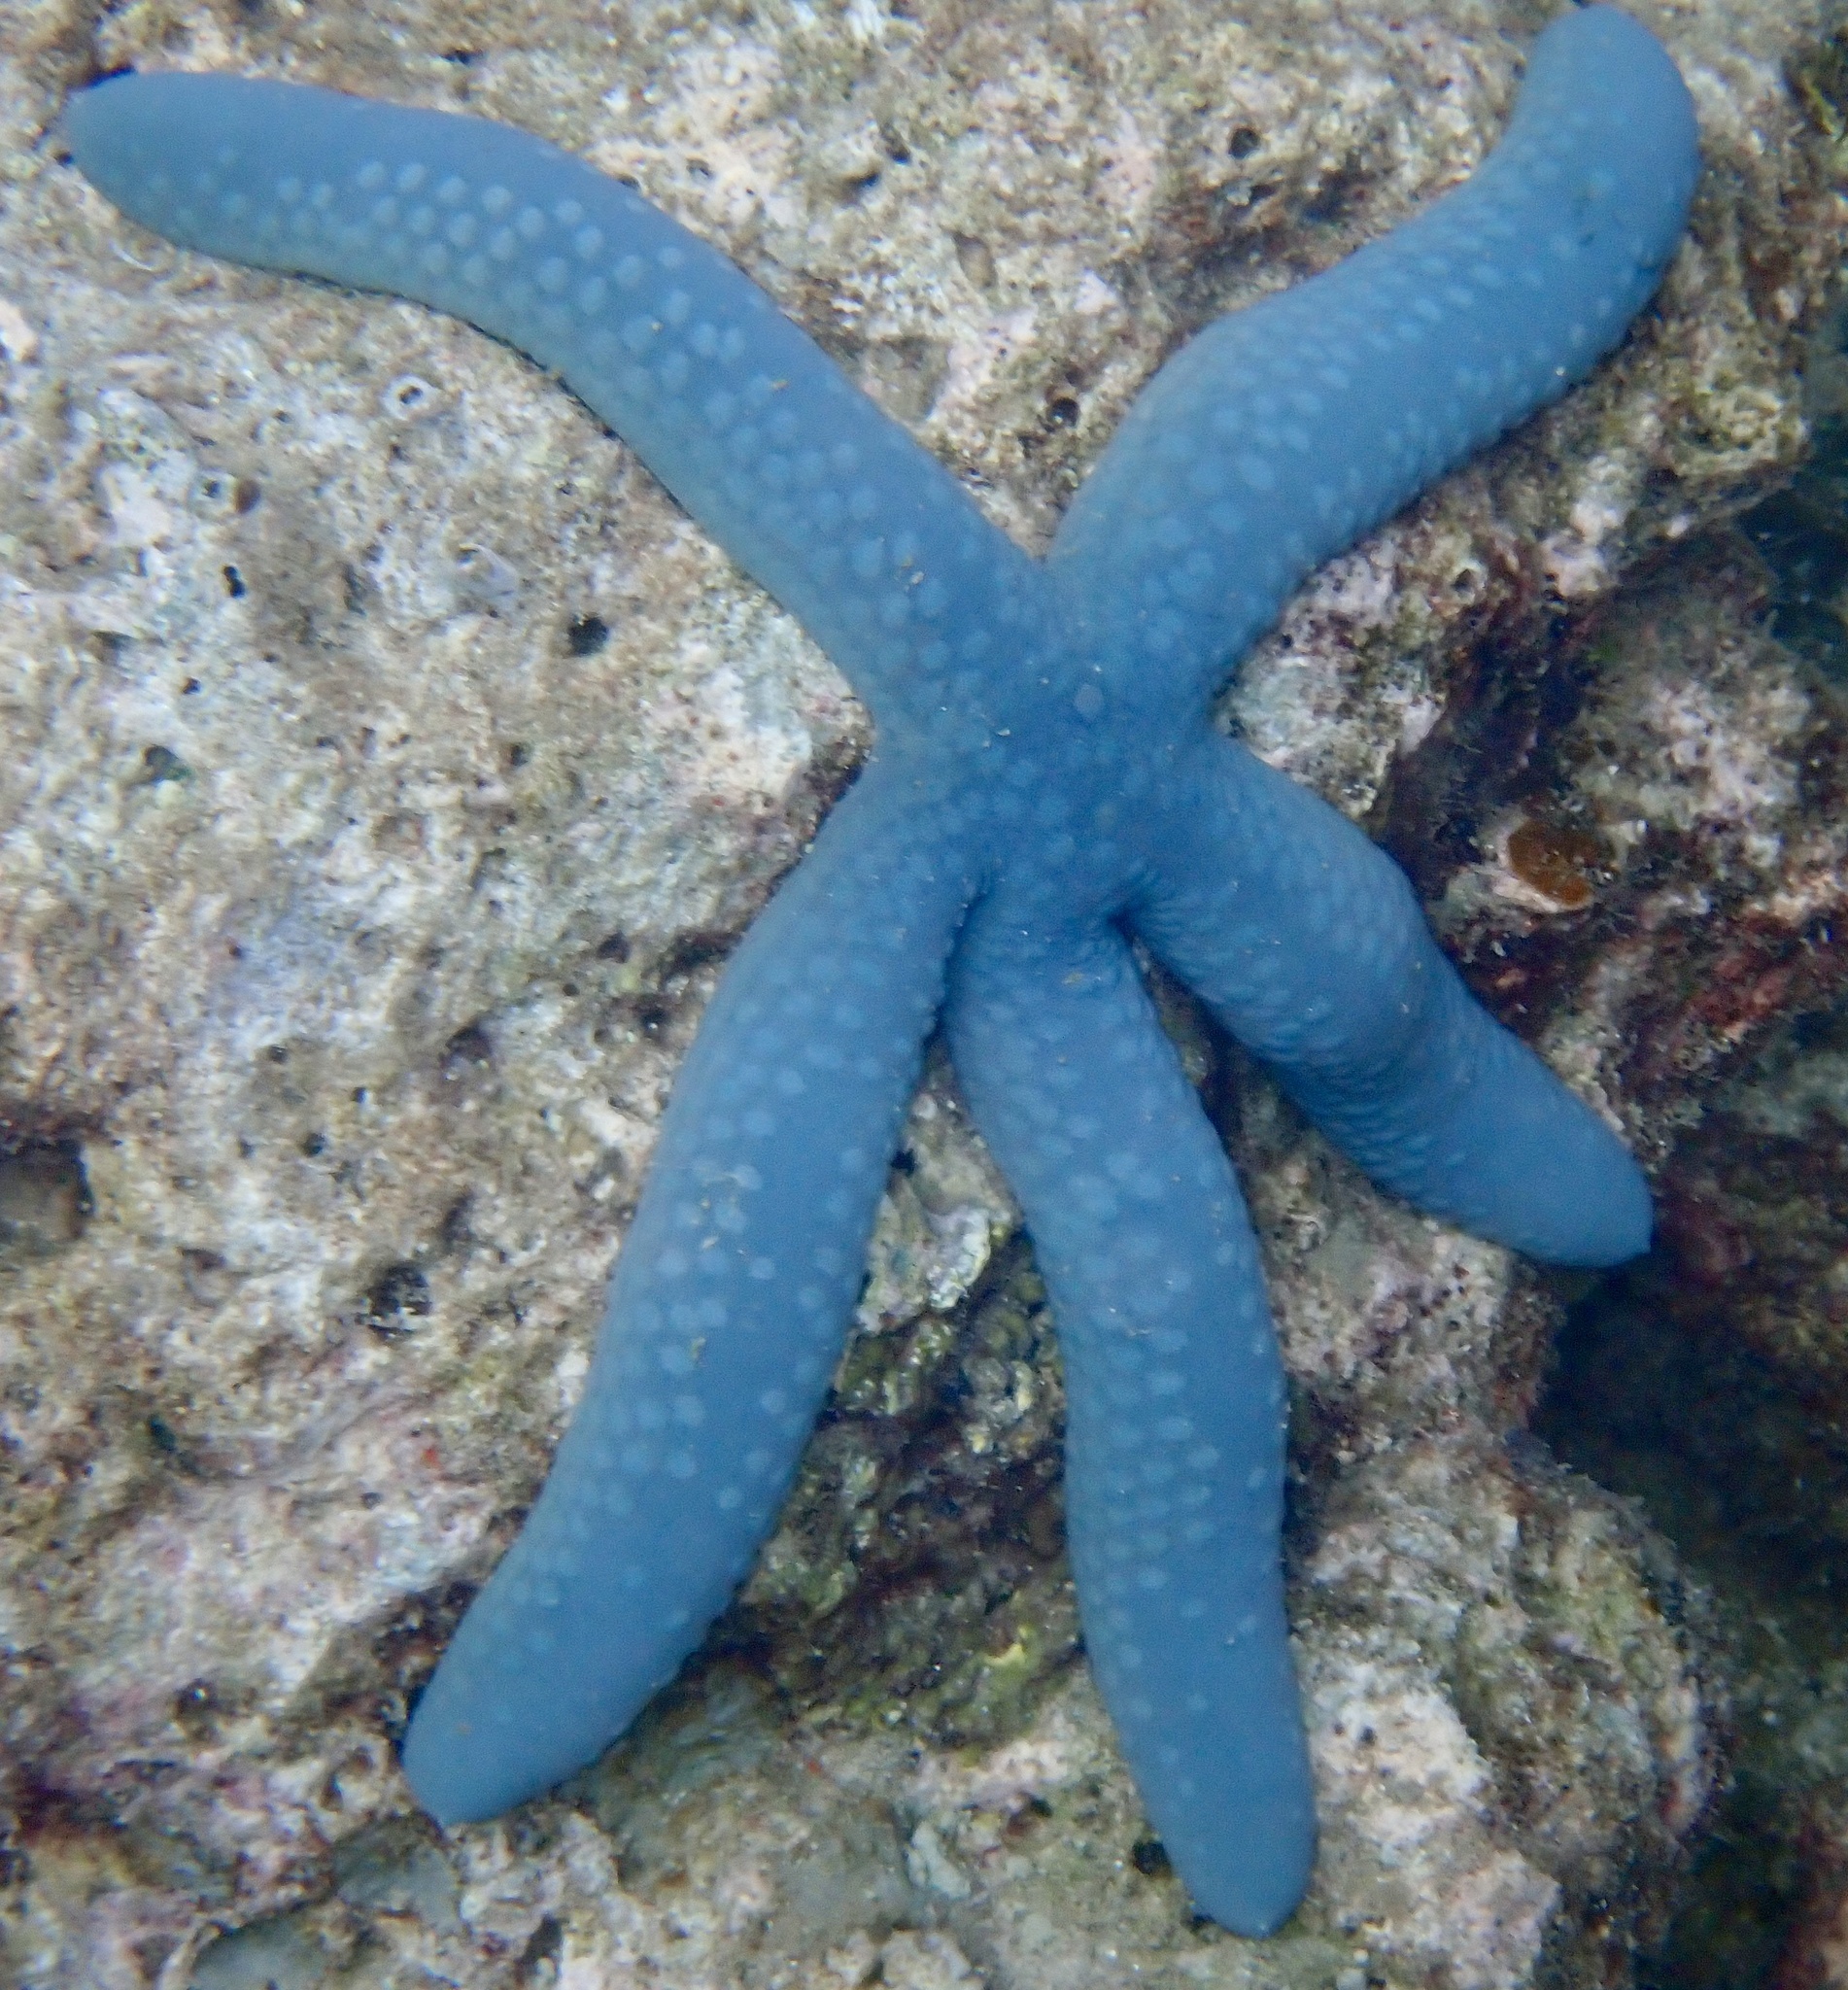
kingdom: Animalia
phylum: Echinodermata
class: Asteroidea
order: Valvatida
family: Ophidiasteridae
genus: Linckia
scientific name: Linckia laevigata
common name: Azure sea star
